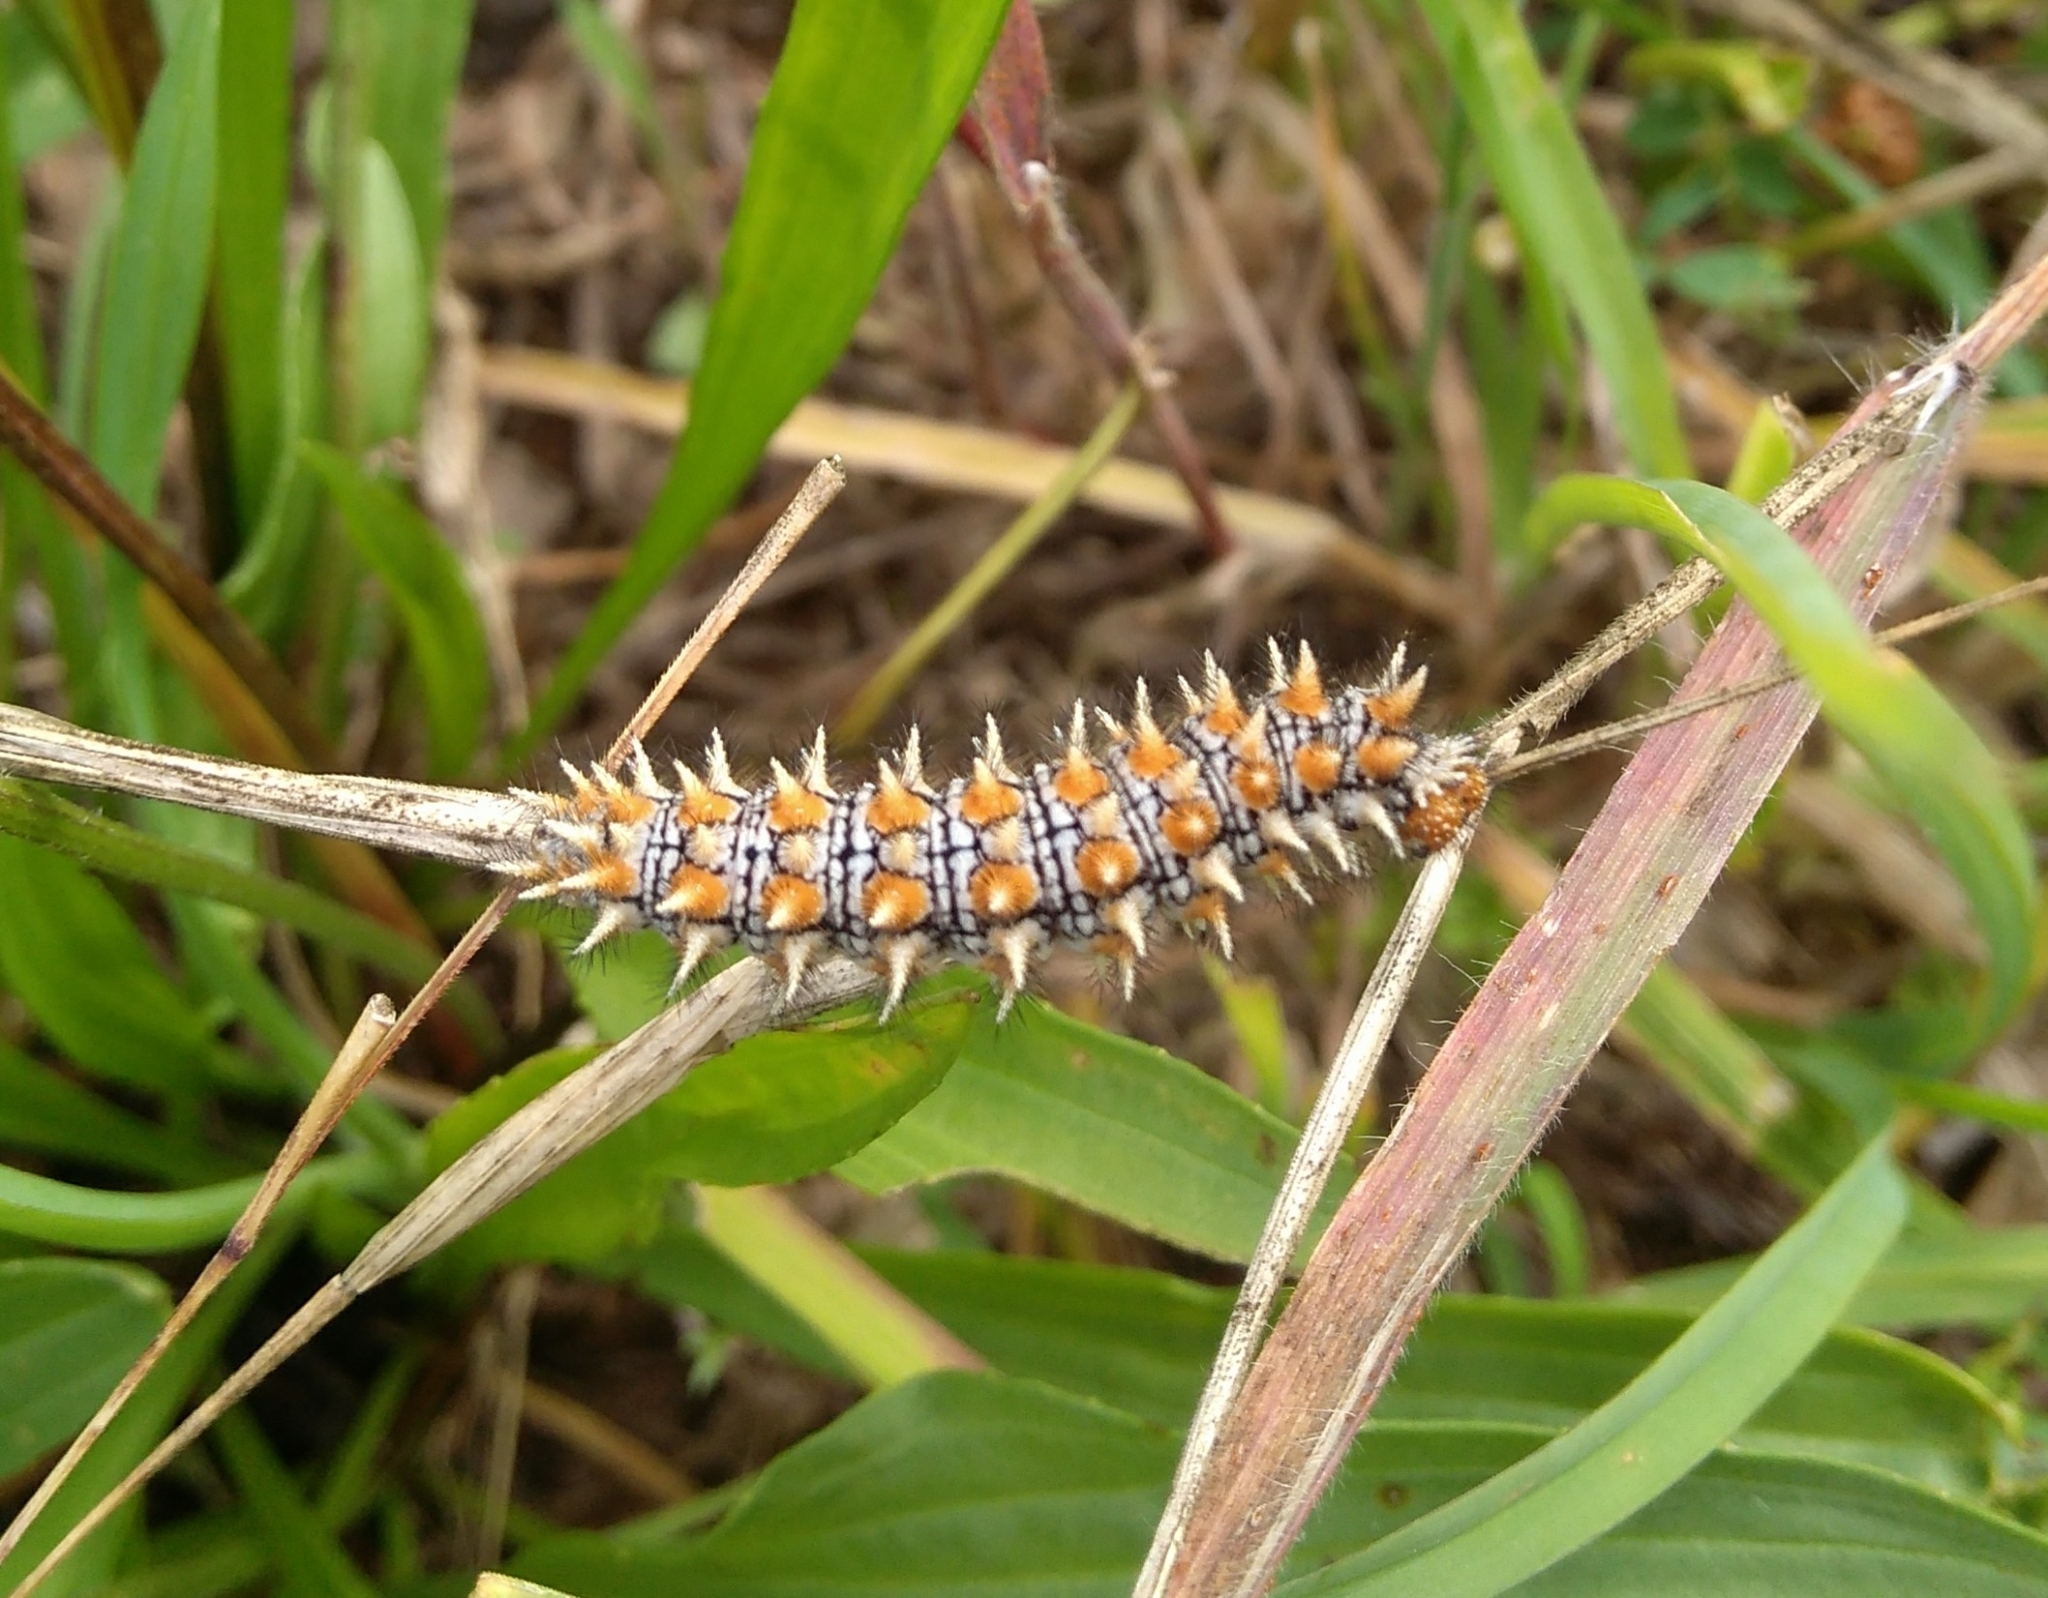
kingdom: Animalia
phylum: Arthropoda
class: Insecta
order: Lepidoptera
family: Nymphalidae
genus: Melitaea
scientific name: Melitaea didyma
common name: Spotted fritillary
